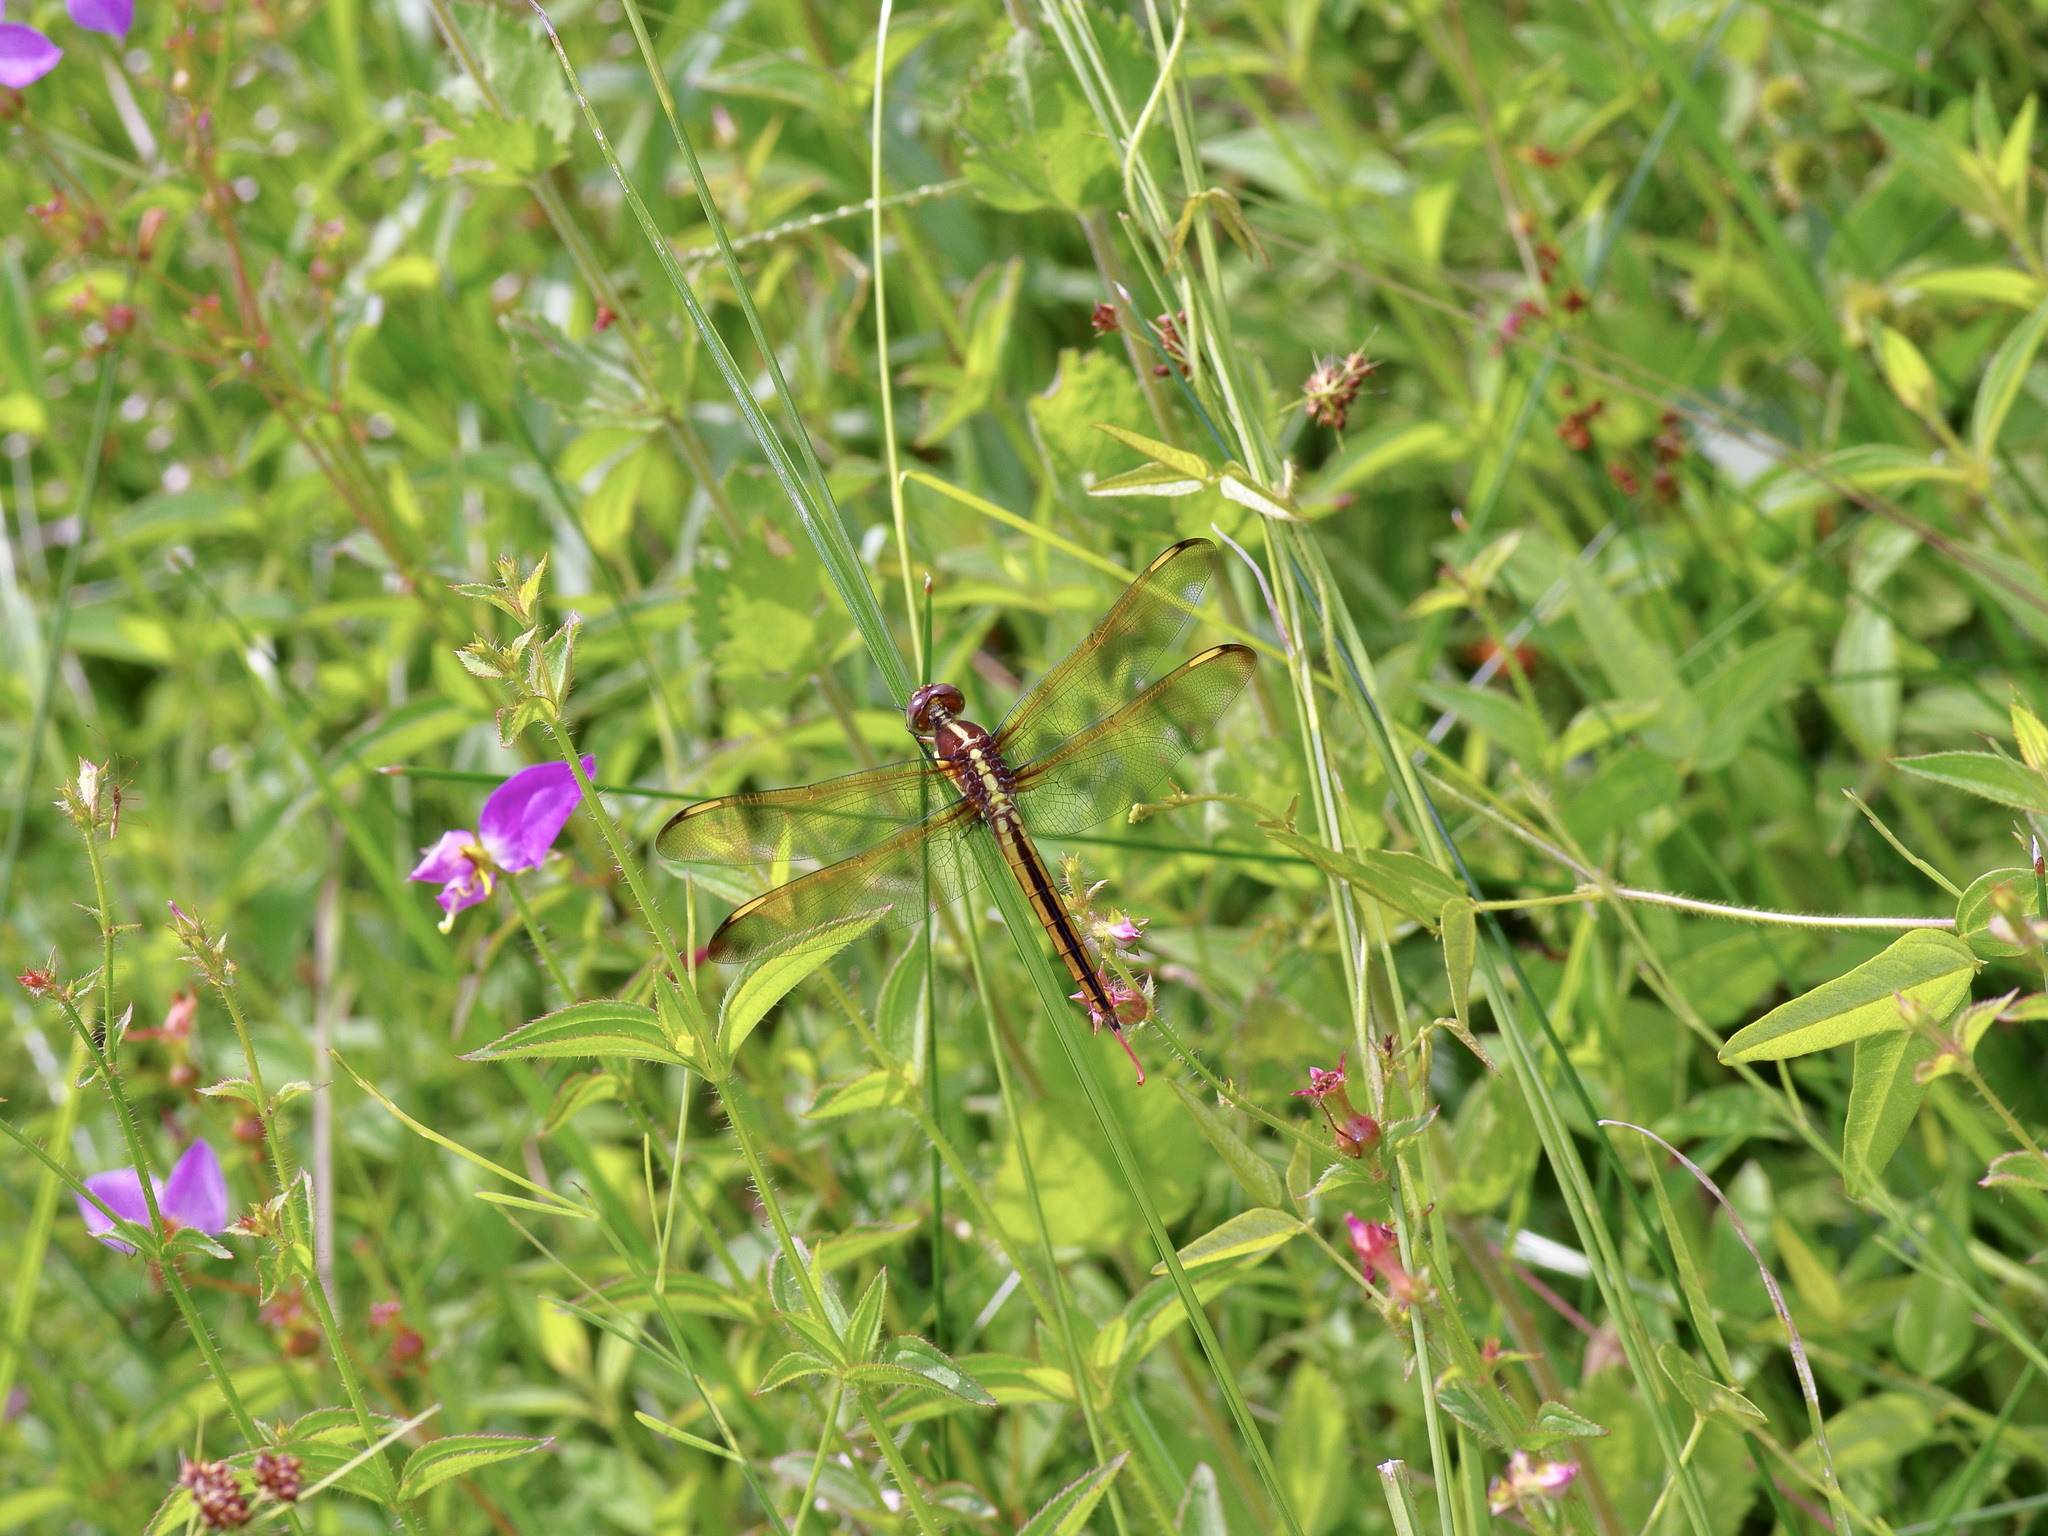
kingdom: Animalia
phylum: Arthropoda
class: Insecta
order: Odonata
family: Libellulidae
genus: Libellula
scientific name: Libellula flavida
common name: Yellow-sided skimmer
